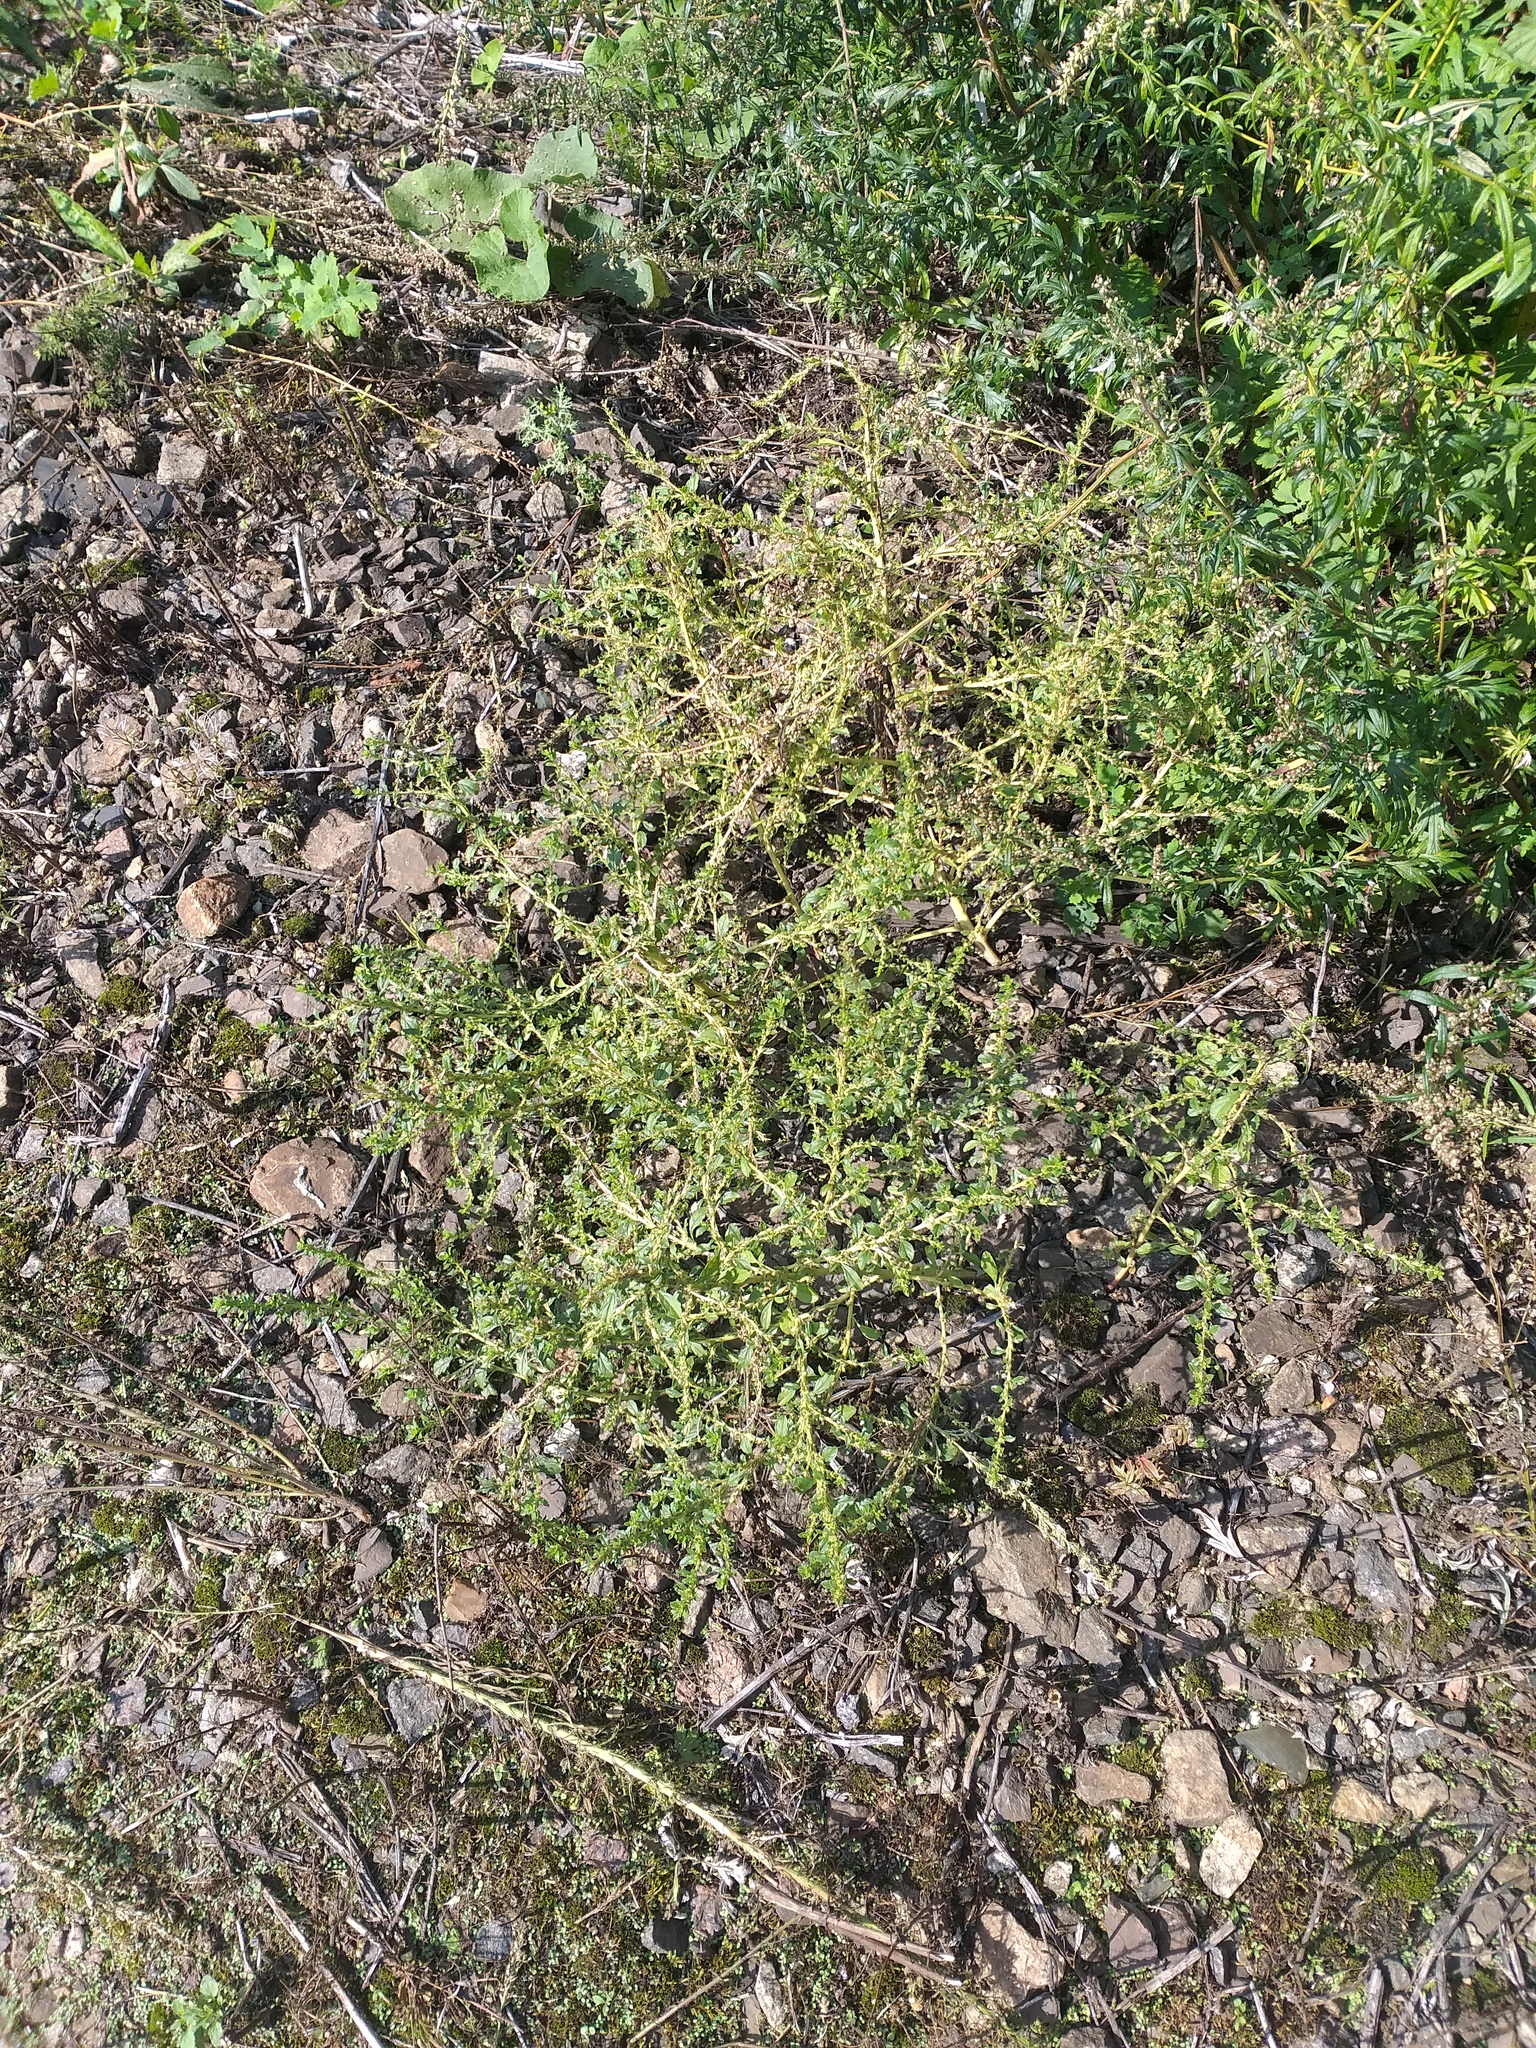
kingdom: Plantae
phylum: Tracheophyta
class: Magnoliopsida
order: Caryophyllales
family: Amaranthaceae
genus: Amaranthus
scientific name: Amaranthus albus
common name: White pigweed
